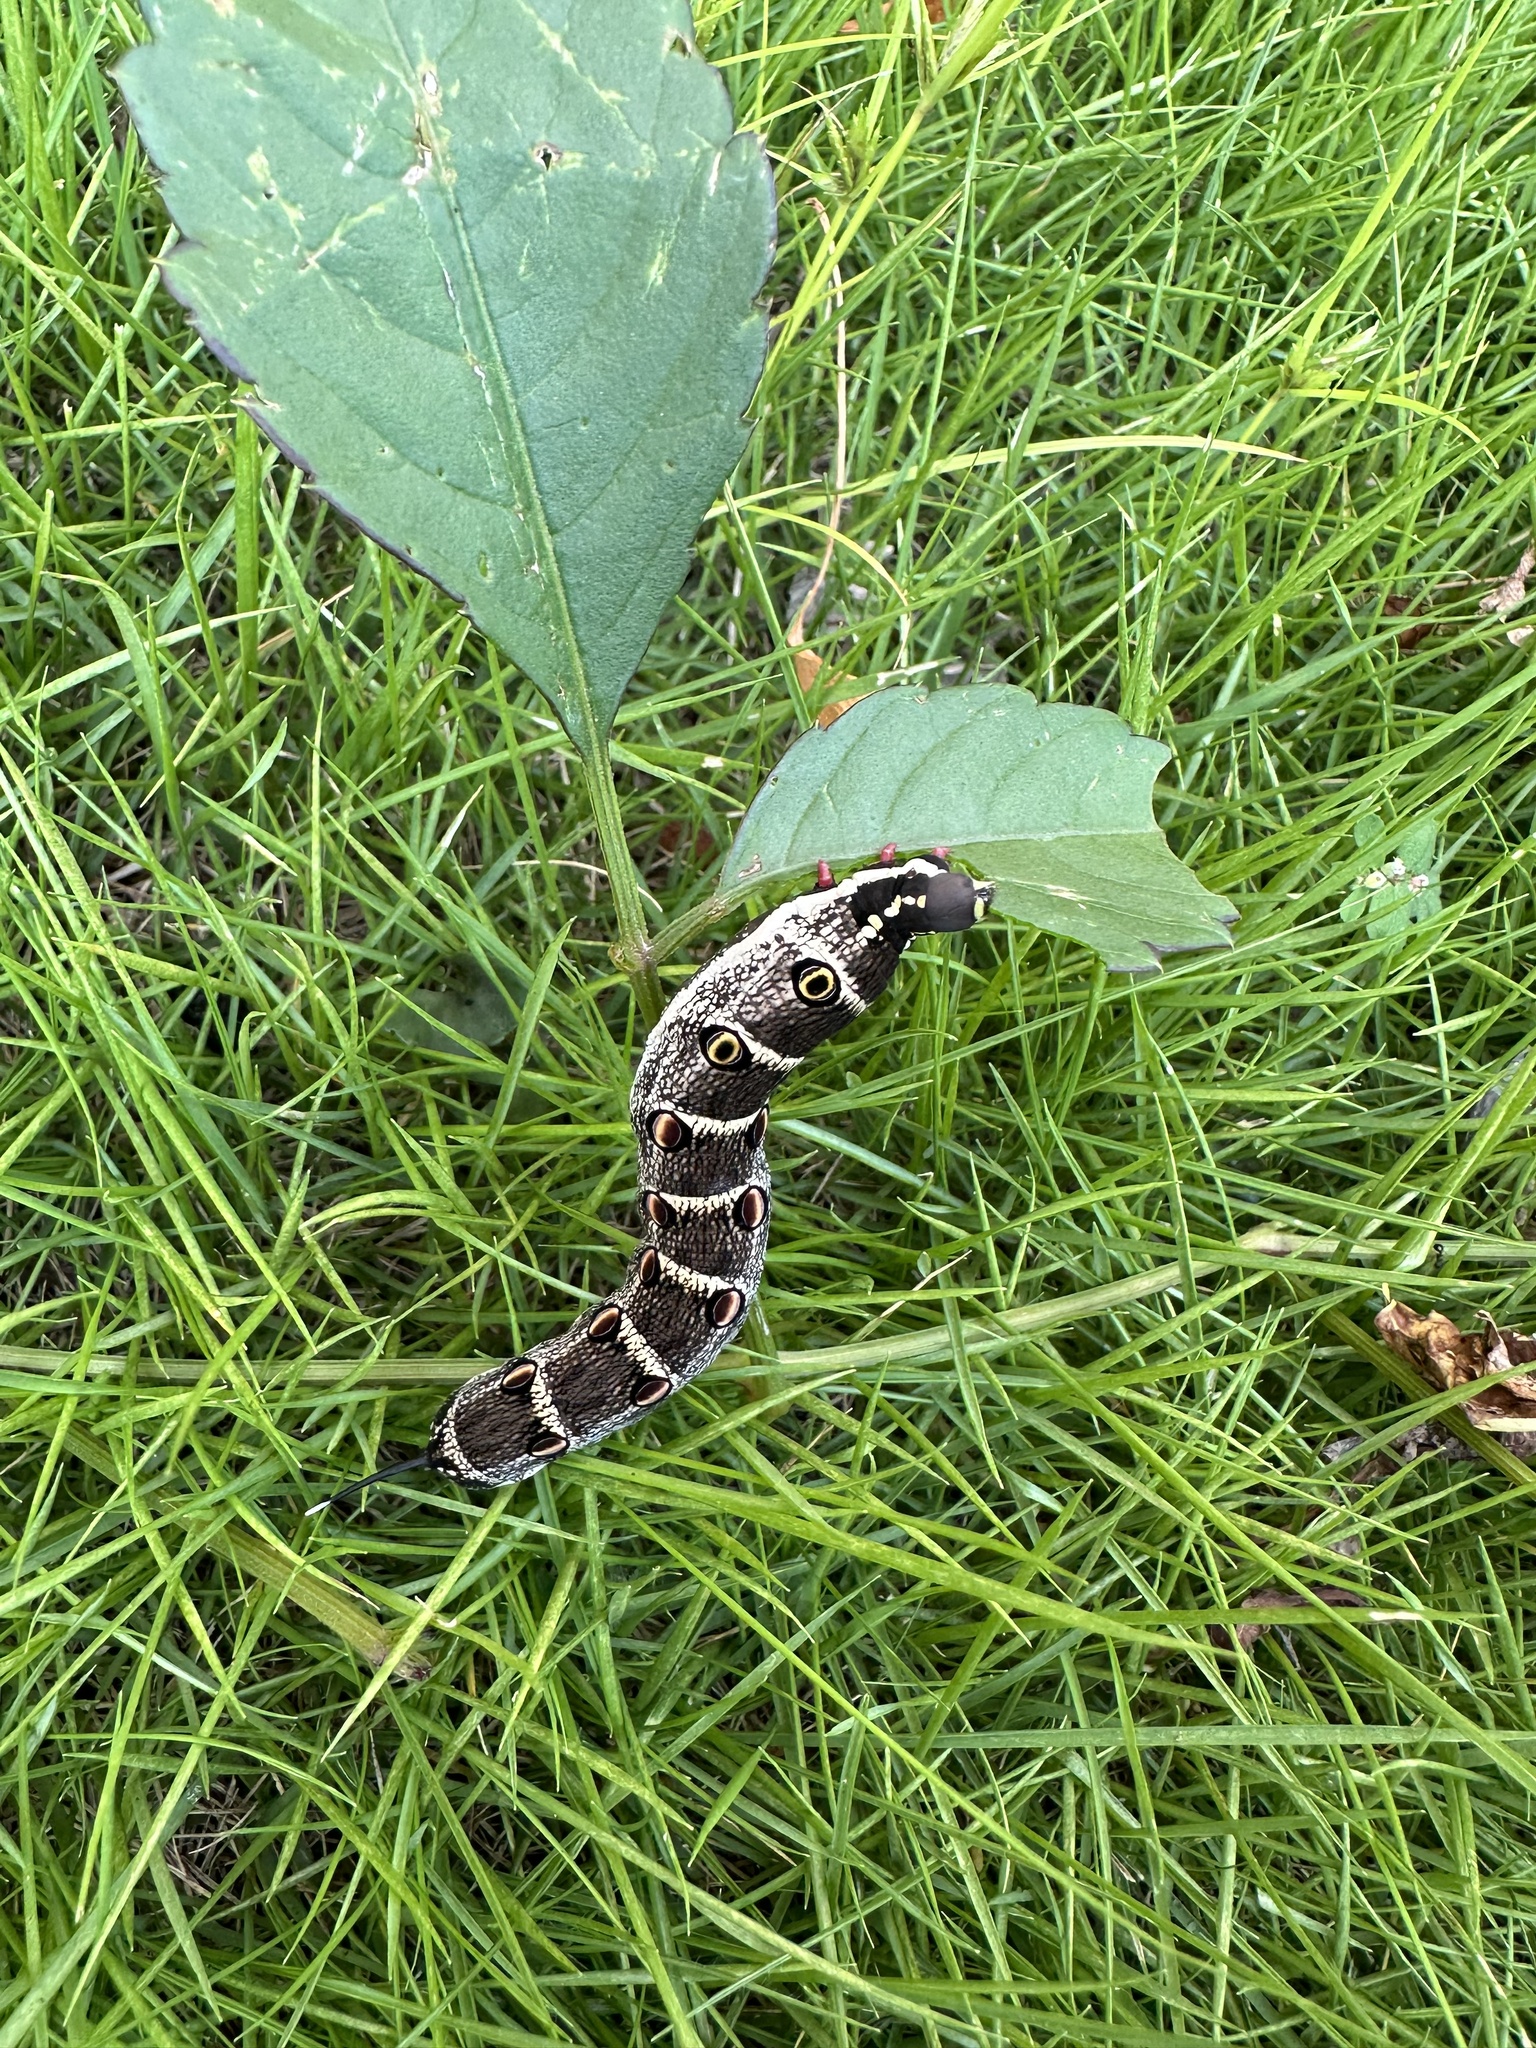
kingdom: Animalia
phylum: Arthropoda
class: Insecta
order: Lepidoptera
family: Sphingidae
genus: Theretra
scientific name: Theretra oldenlandiae
